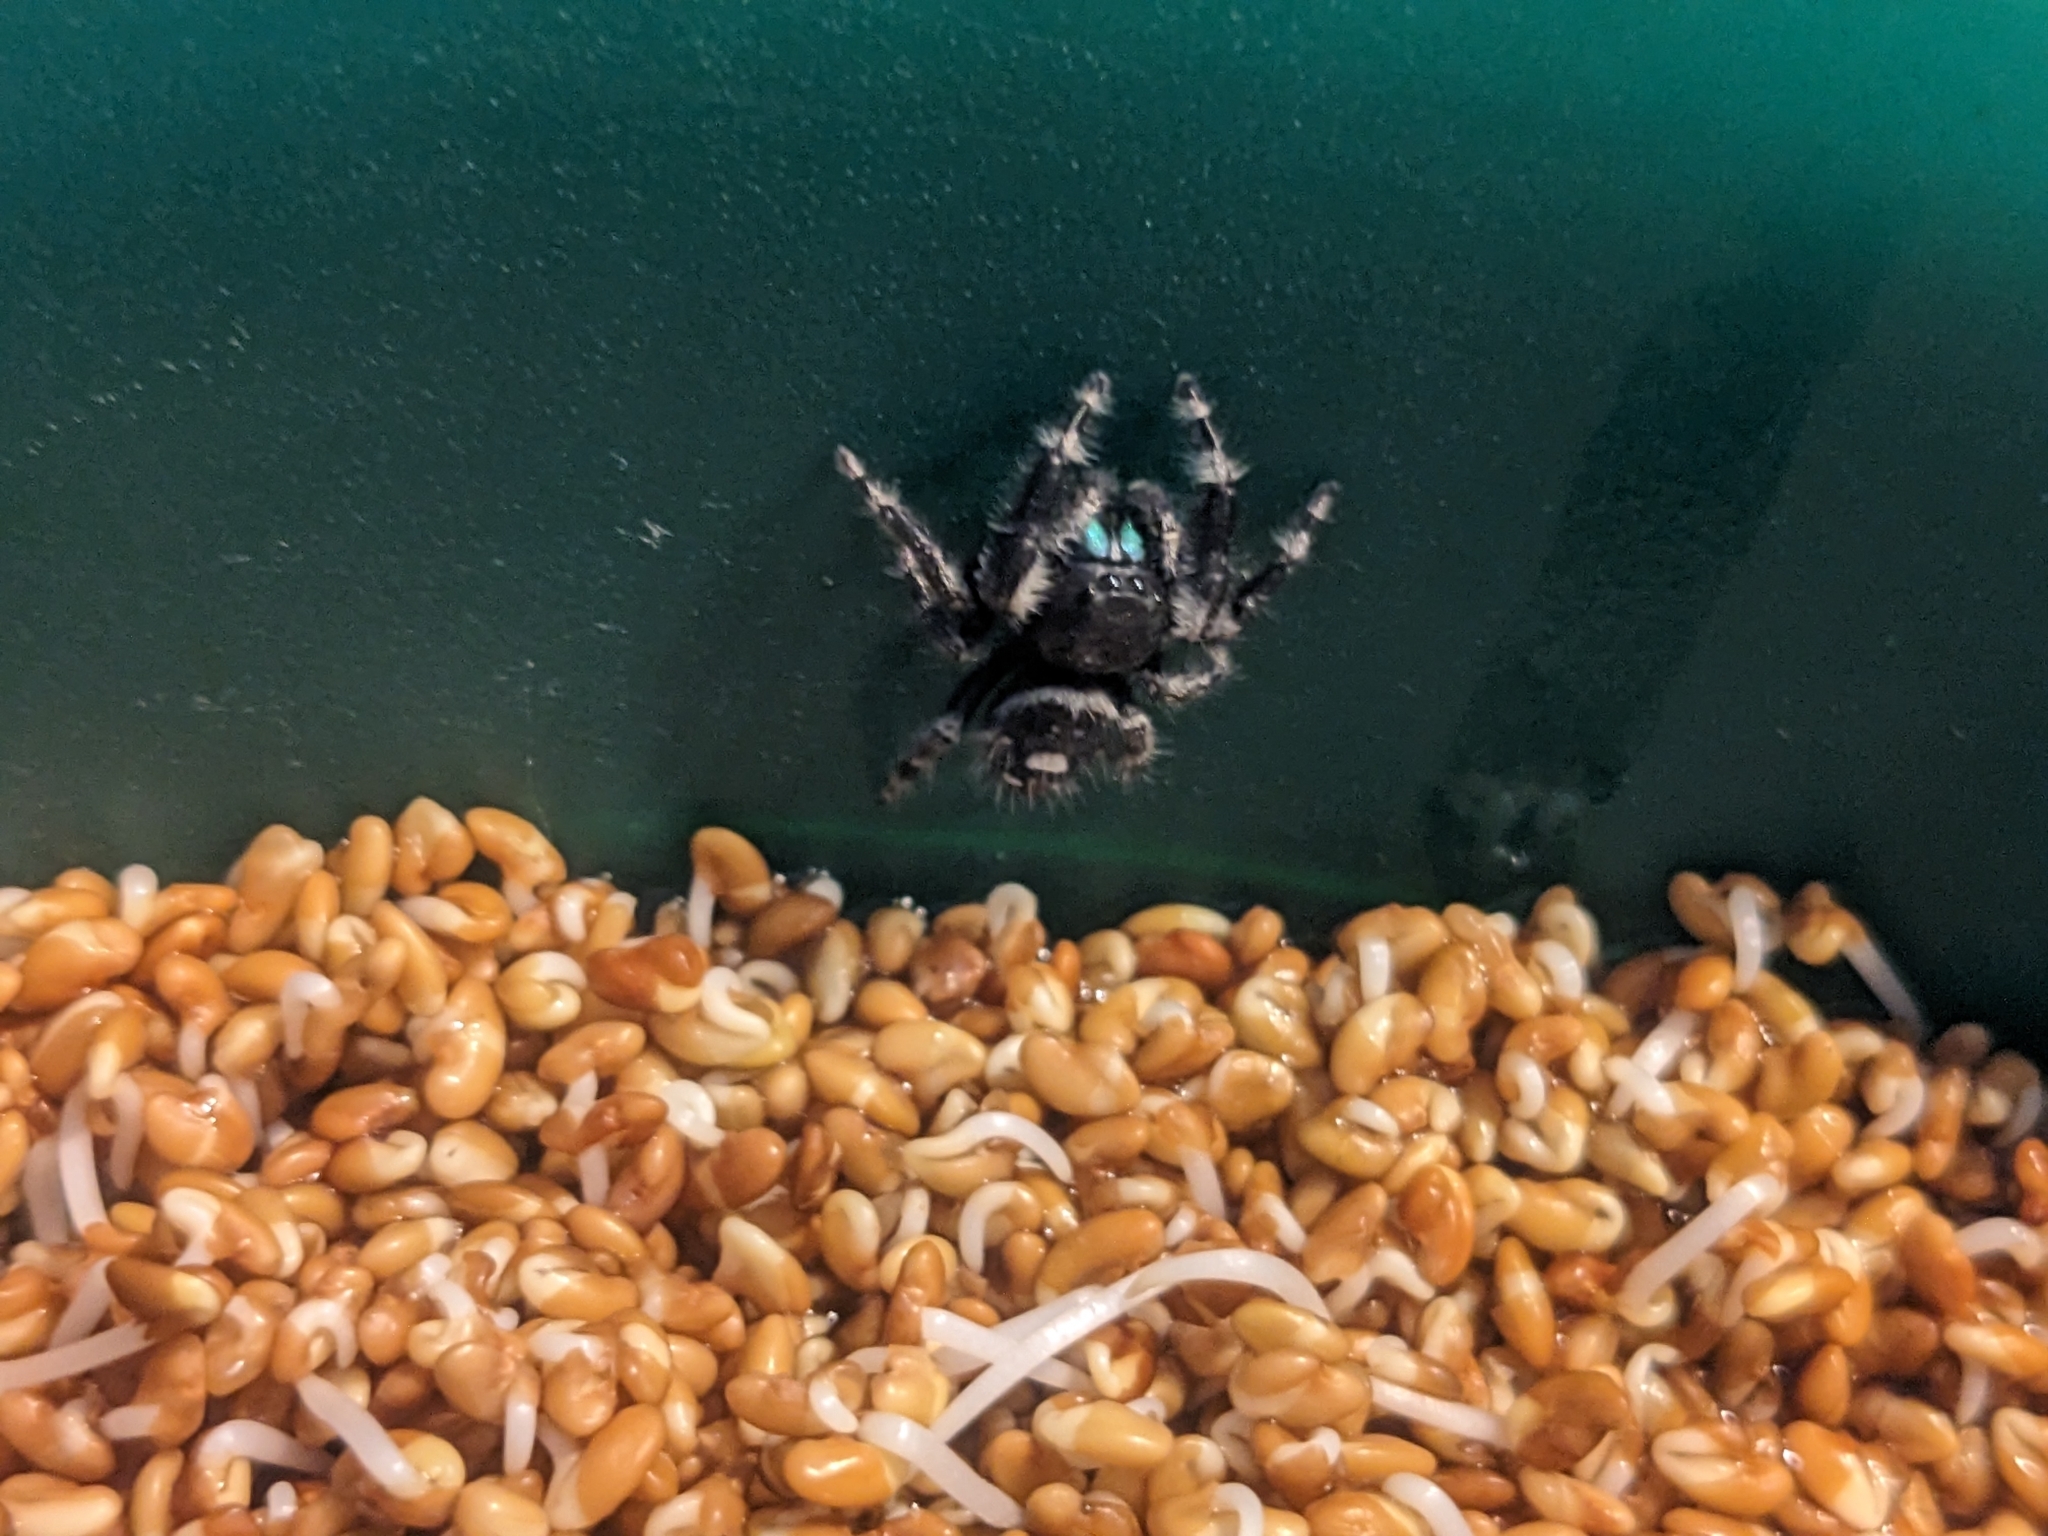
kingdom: Animalia
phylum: Arthropoda
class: Arachnida
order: Araneae
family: Salticidae
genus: Phidippus
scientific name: Phidippus audax
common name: Bold jumper
